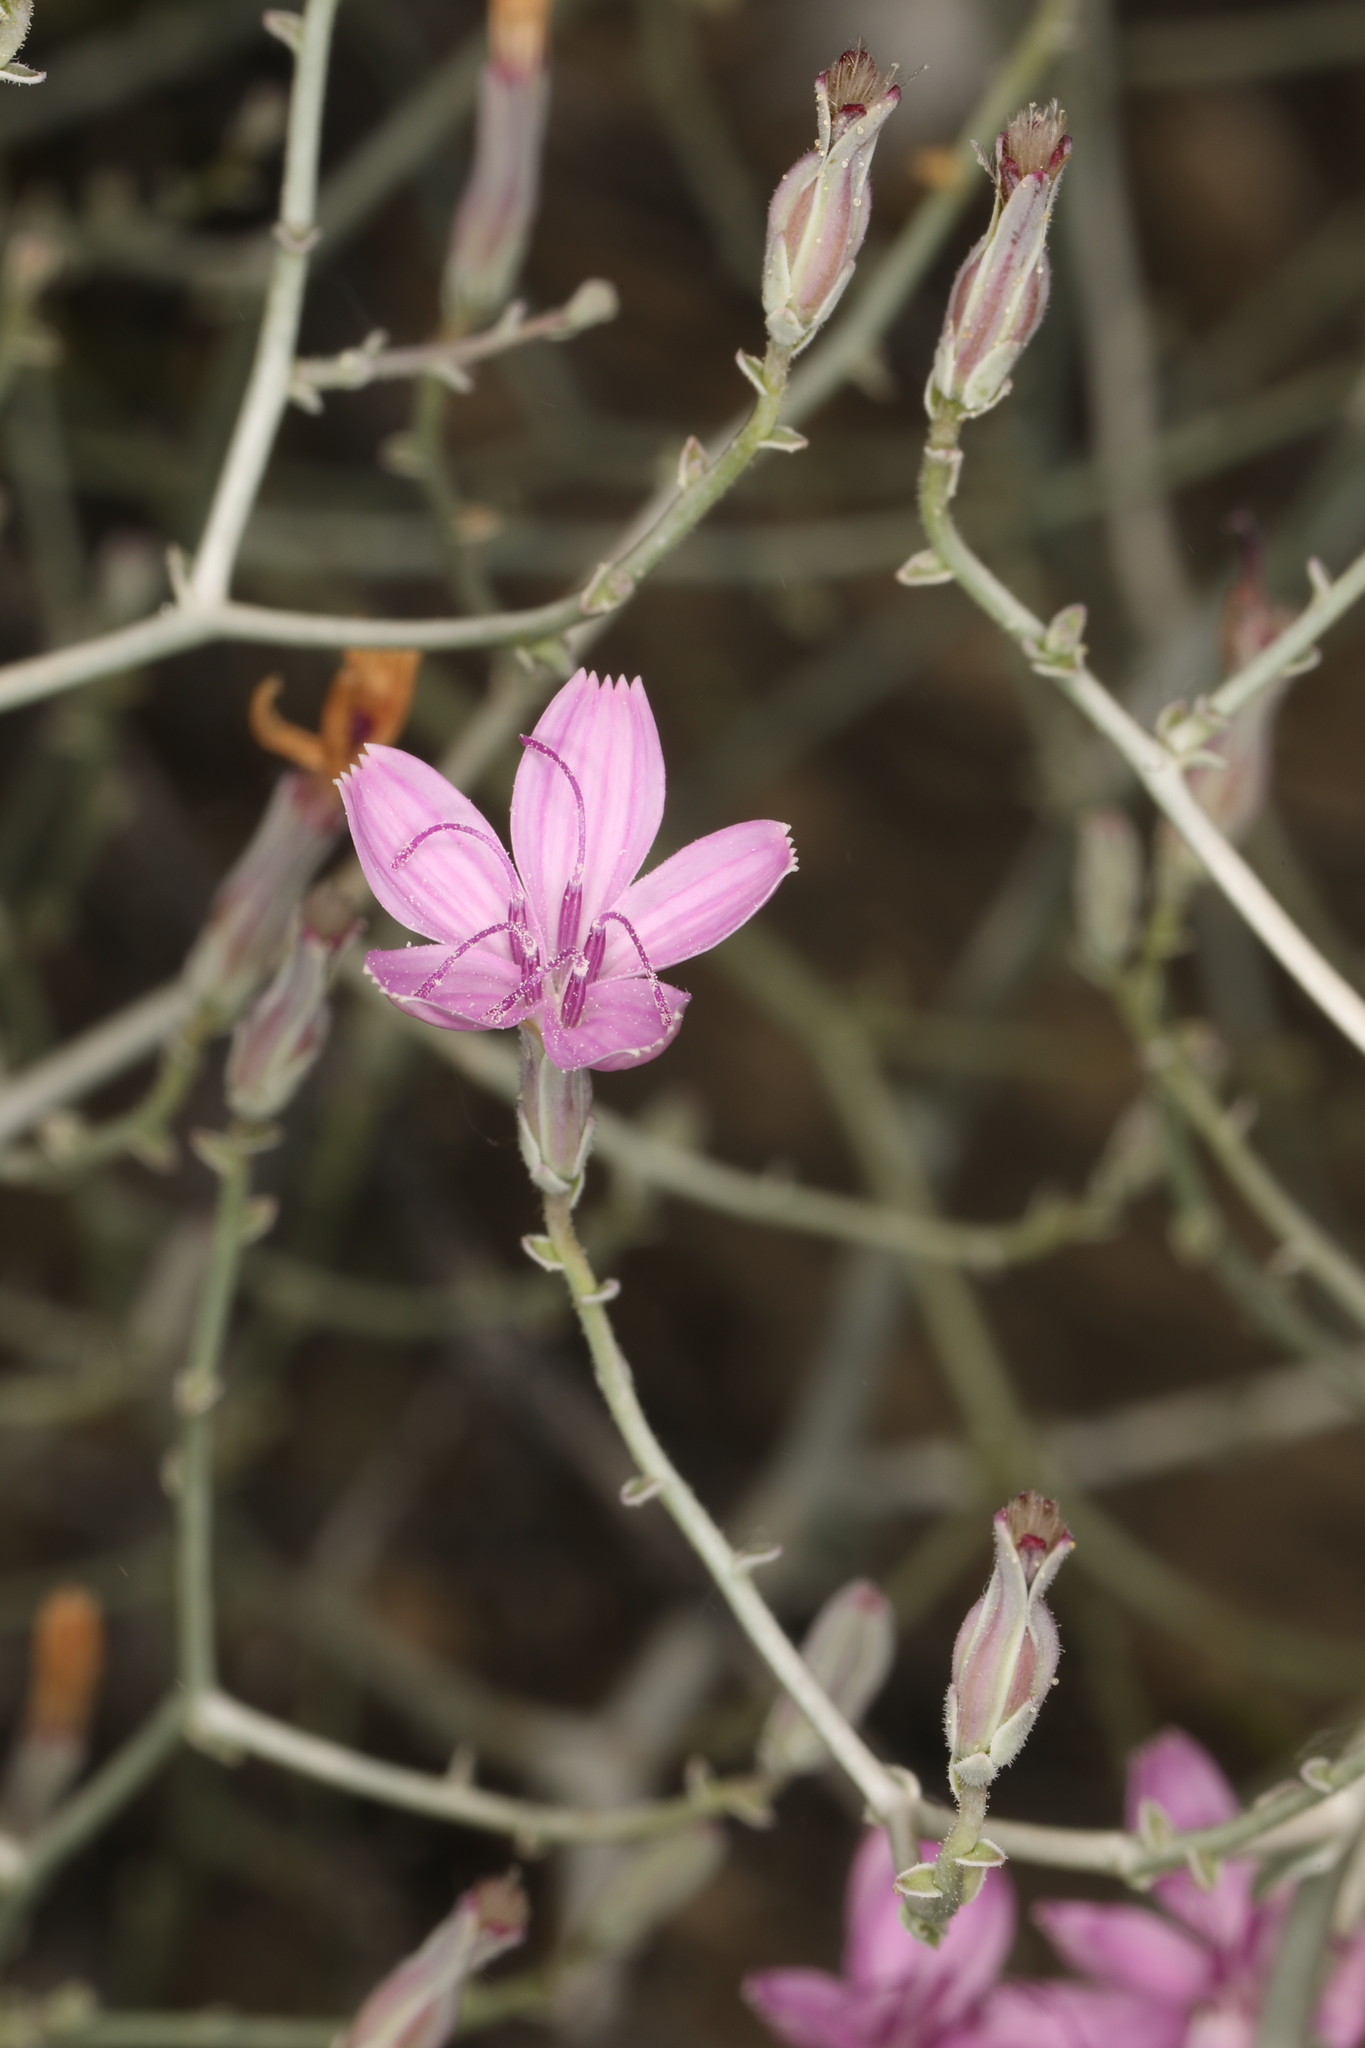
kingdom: Plantae
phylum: Tracheophyta
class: Magnoliopsida
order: Asterales
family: Asteraceae
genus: Stephanomeria
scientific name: Stephanomeria exigua
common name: Small wirelettuce
